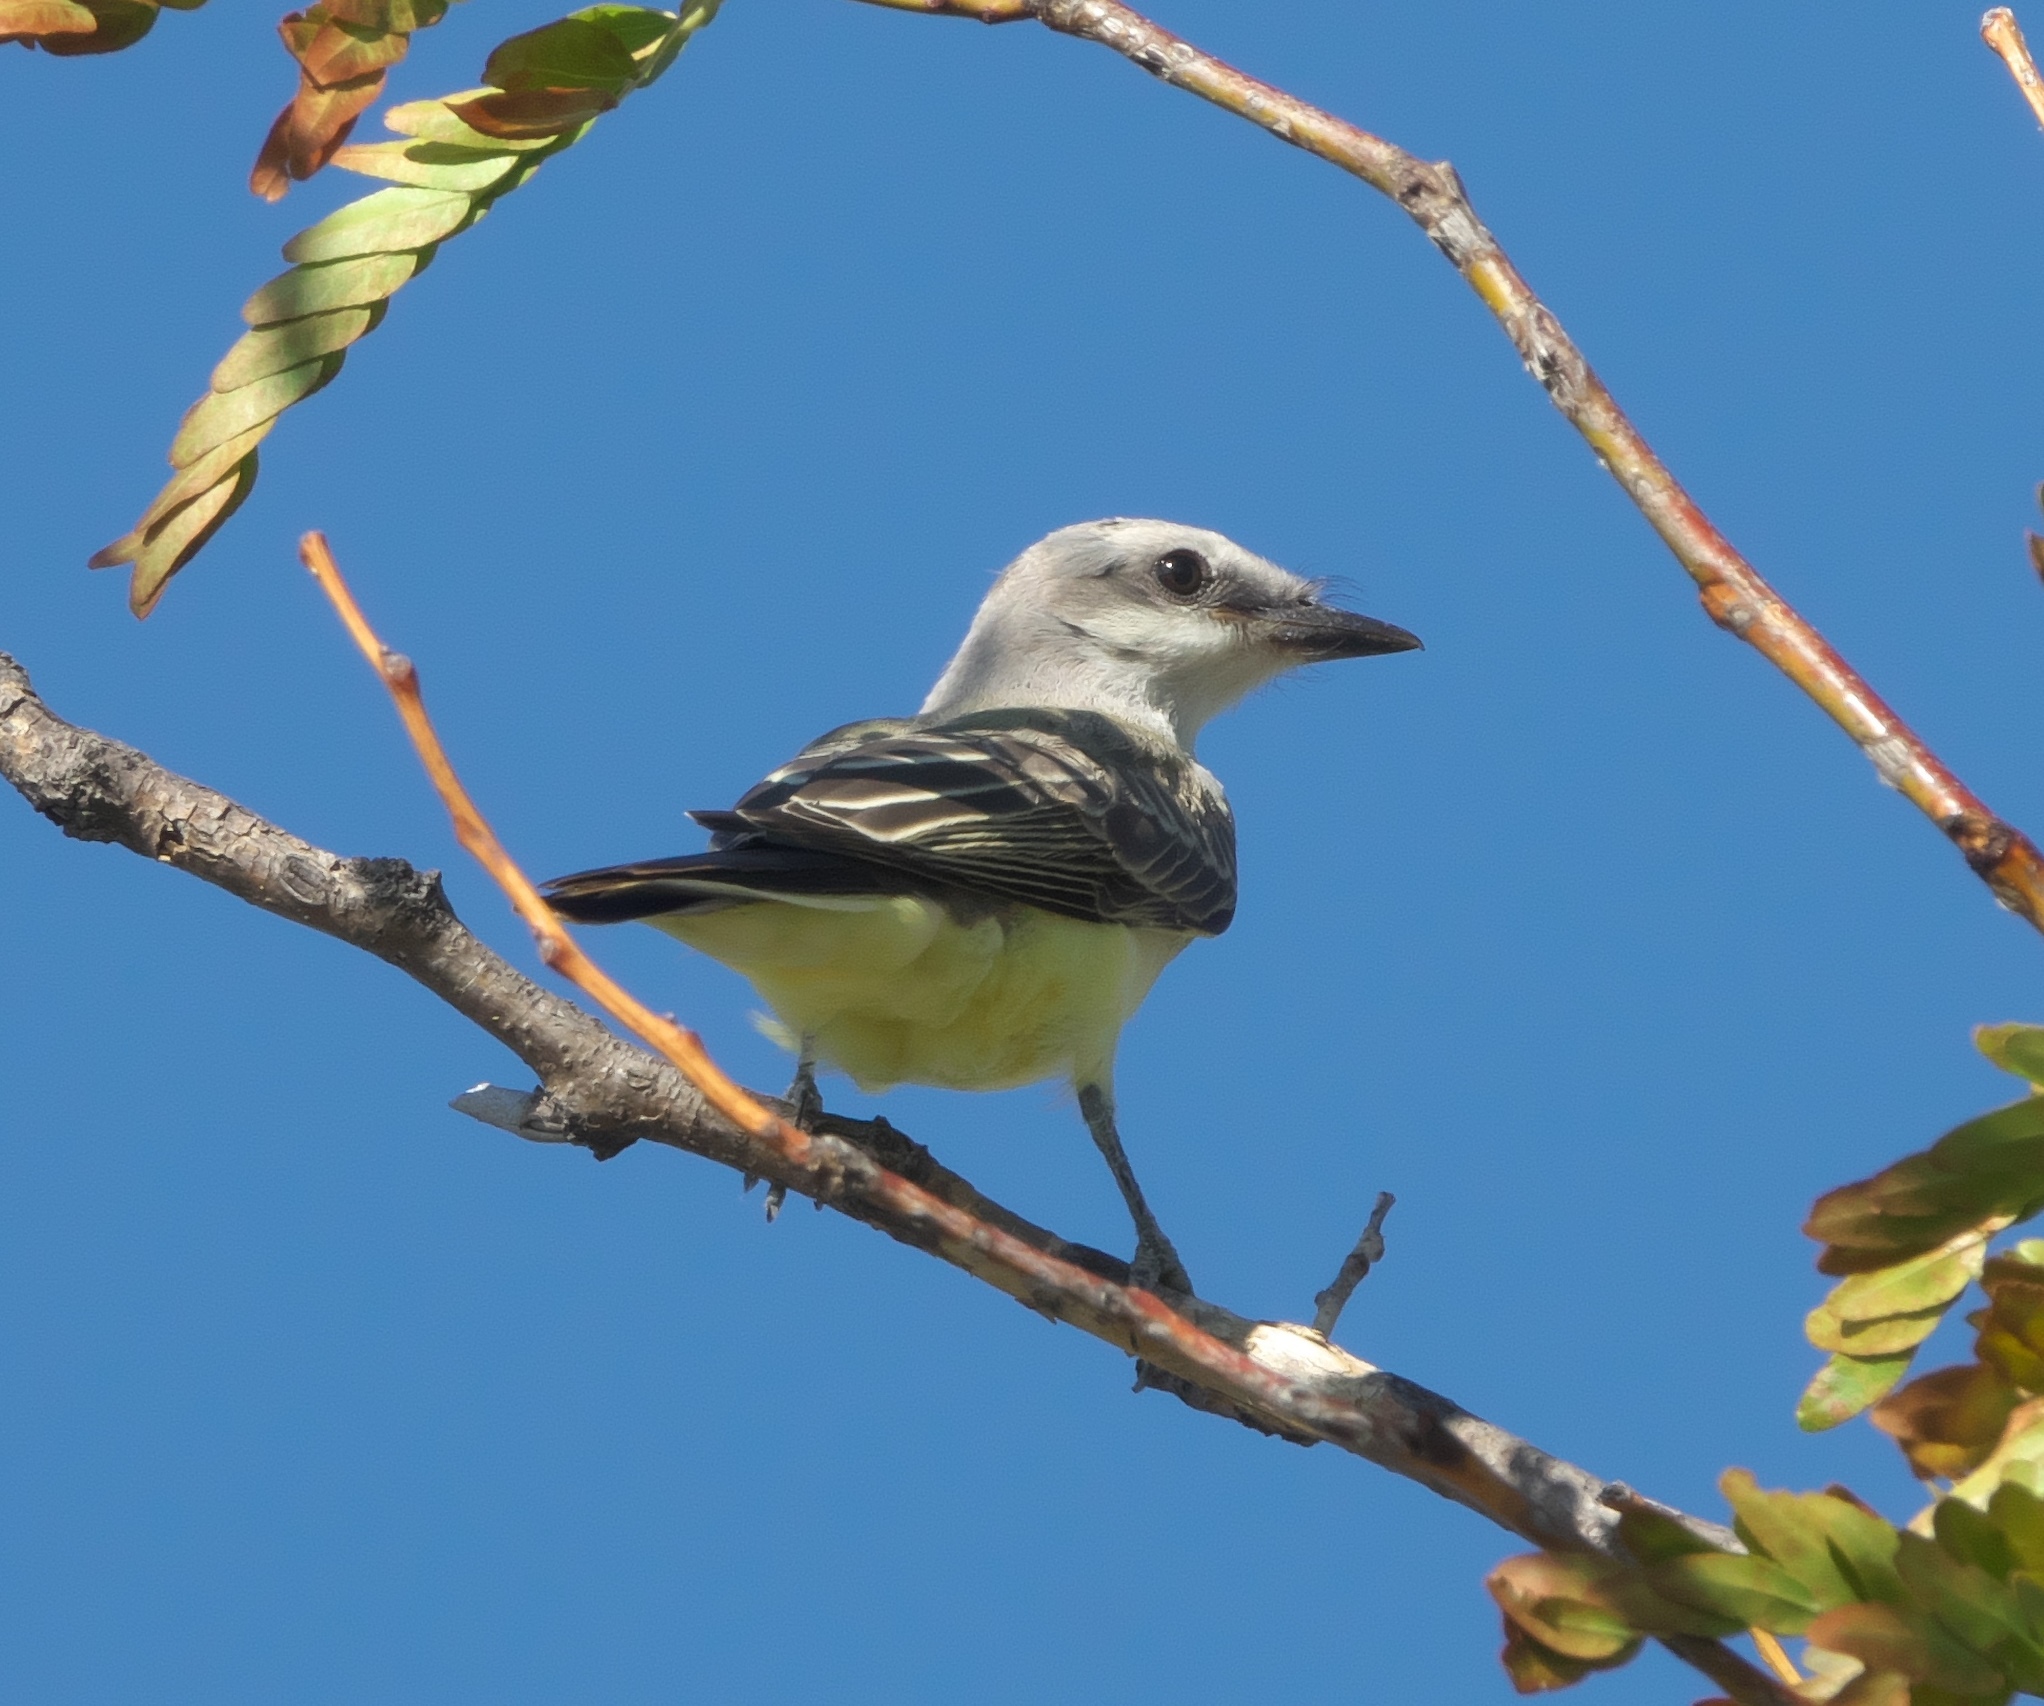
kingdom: Animalia
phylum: Chordata
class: Aves
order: Passeriformes
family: Tyrannidae
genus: Tyrannus
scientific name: Tyrannus verticalis
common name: Western kingbird
